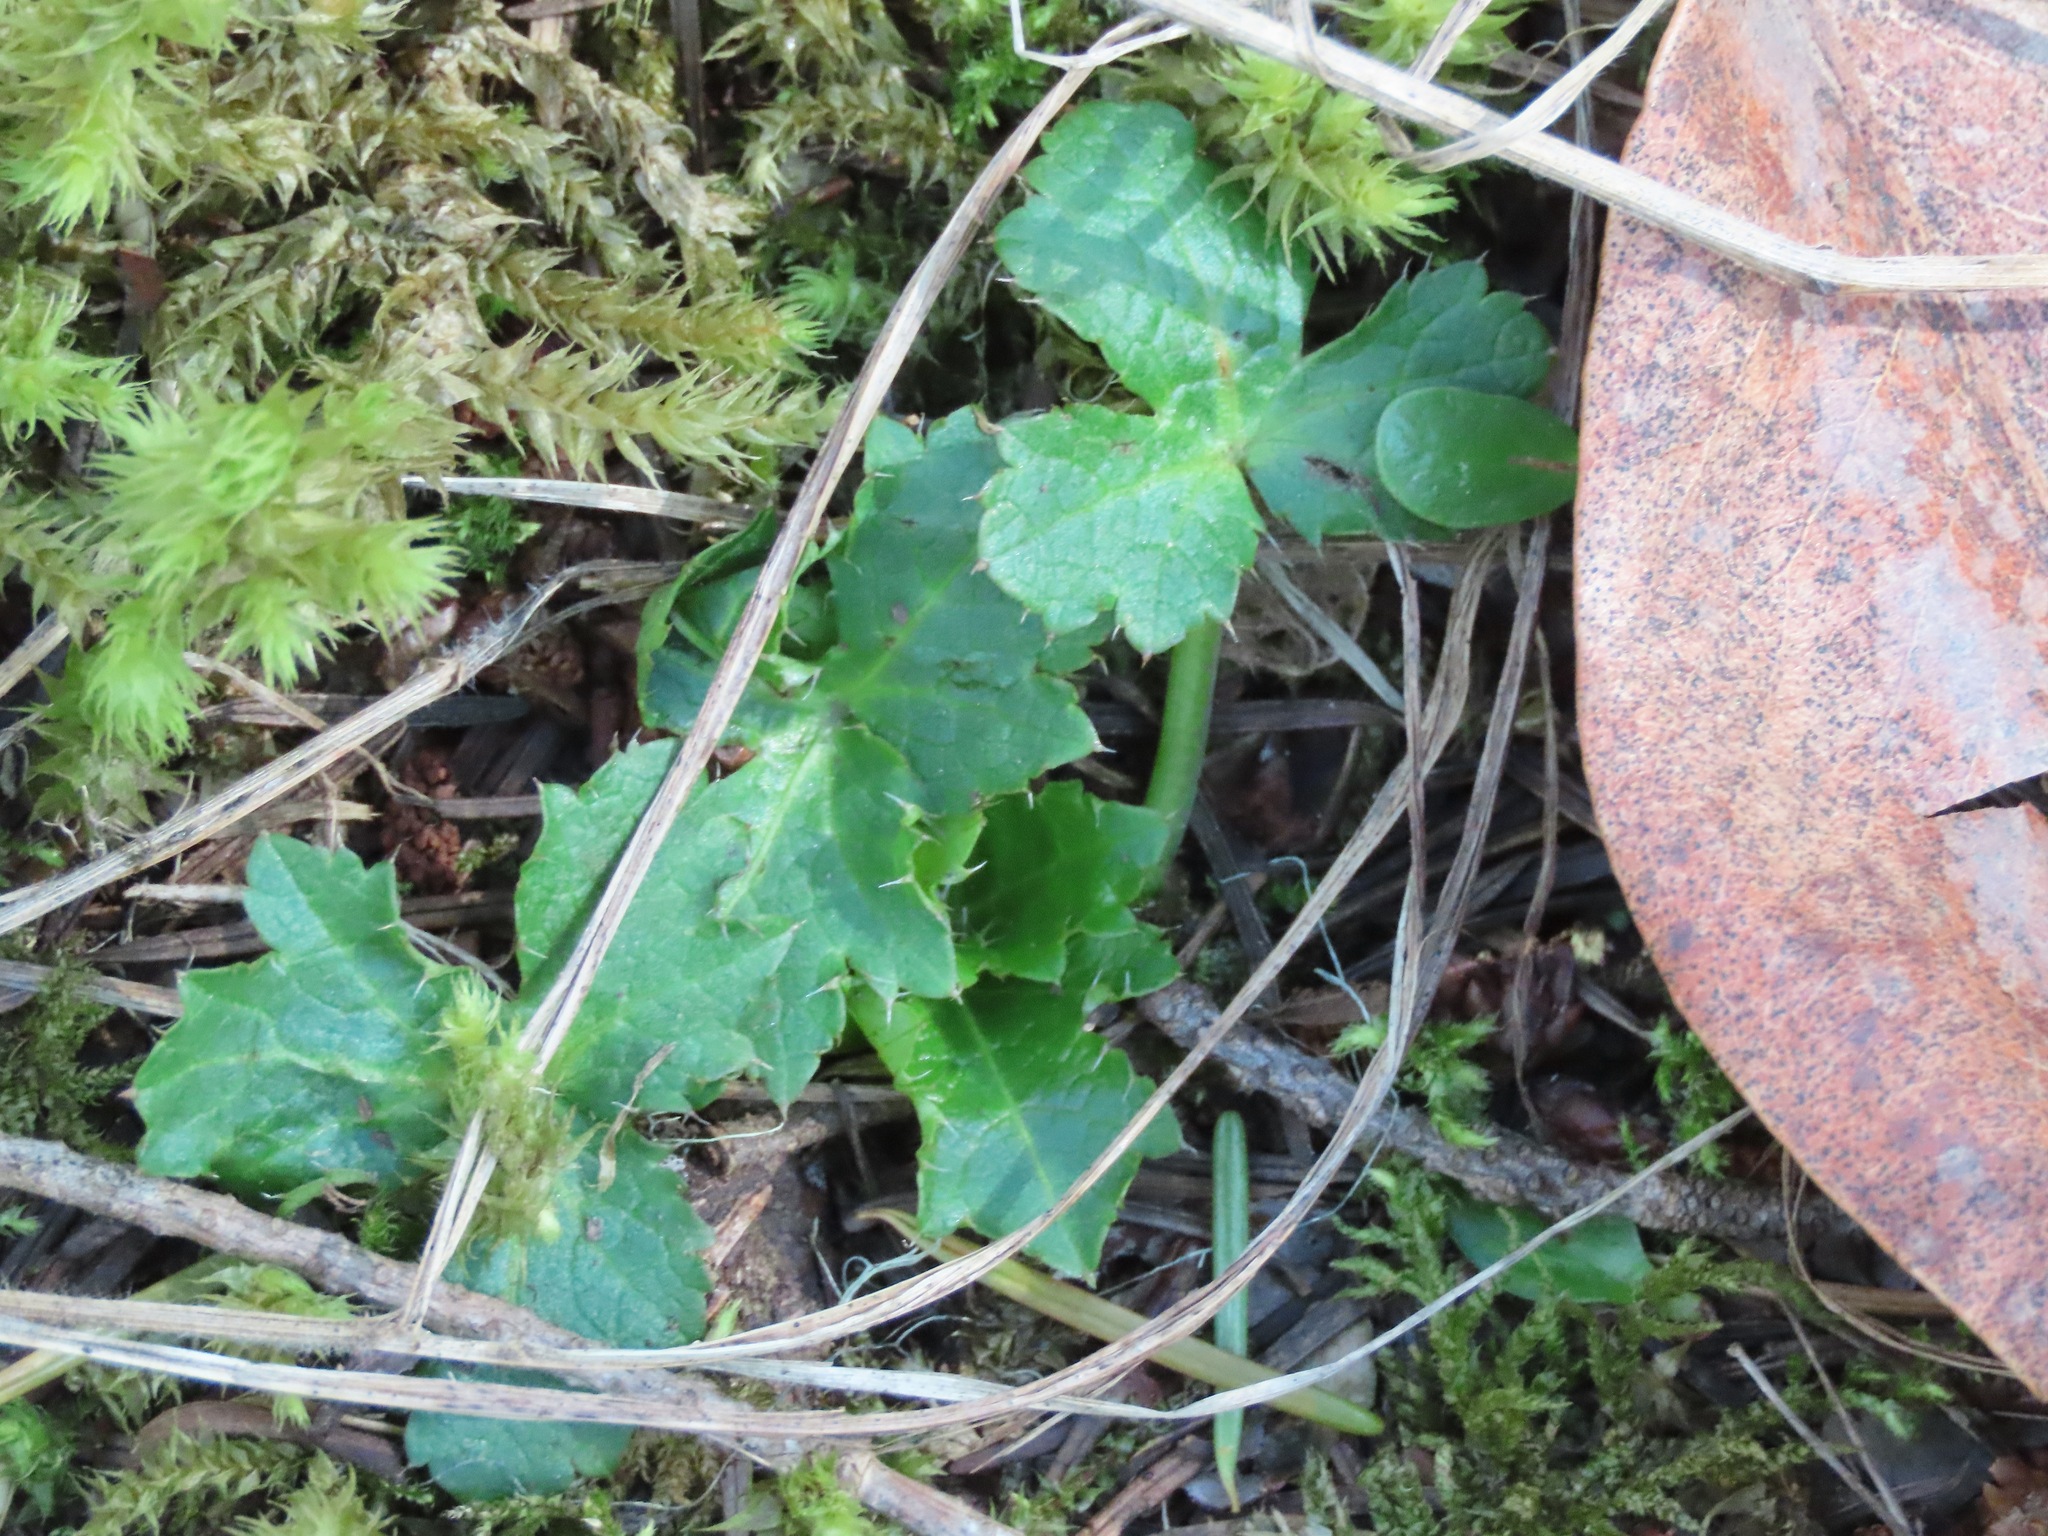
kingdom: Plantae
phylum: Tracheophyta
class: Magnoliopsida
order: Apiales
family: Apiaceae
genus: Sanicula
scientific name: Sanicula crassicaulis
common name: Western snakeroot
